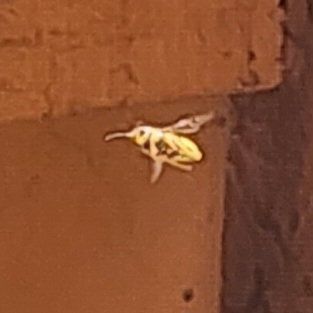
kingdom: Animalia
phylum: Arthropoda
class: Insecta
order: Hymenoptera
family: Vespidae
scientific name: Vespidae
